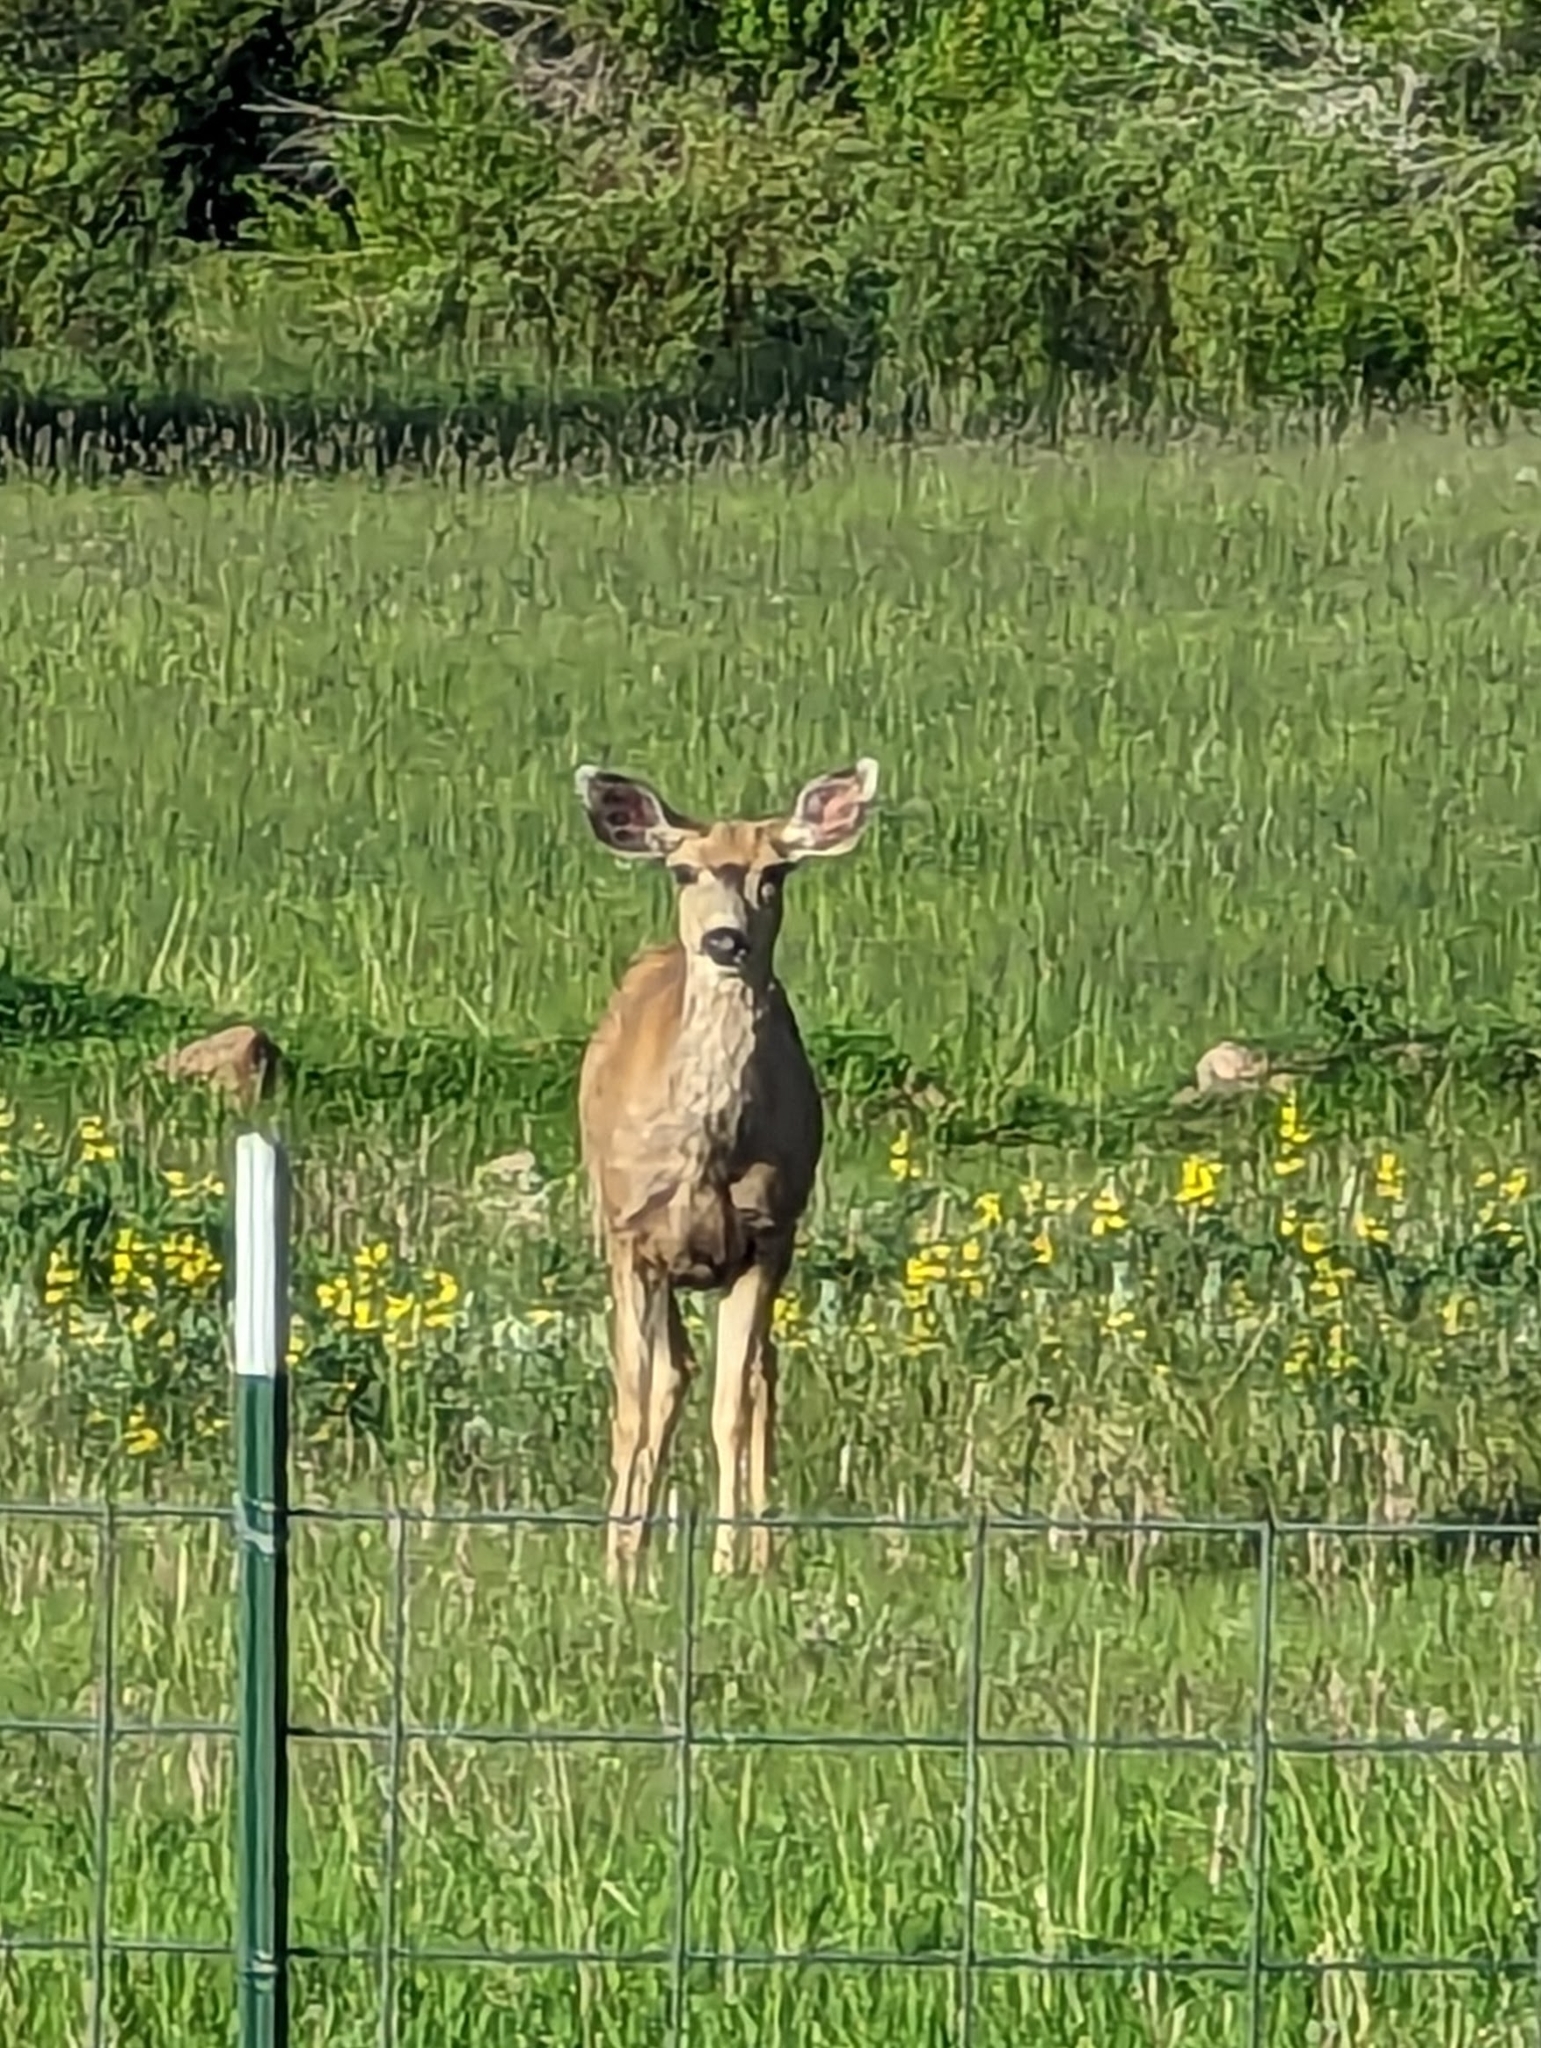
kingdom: Animalia
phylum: Chordata
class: Mammalia
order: Artiodactyla
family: Cervidae
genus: Odocoileus
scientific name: Odocoileus hemionus
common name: Mule deer
